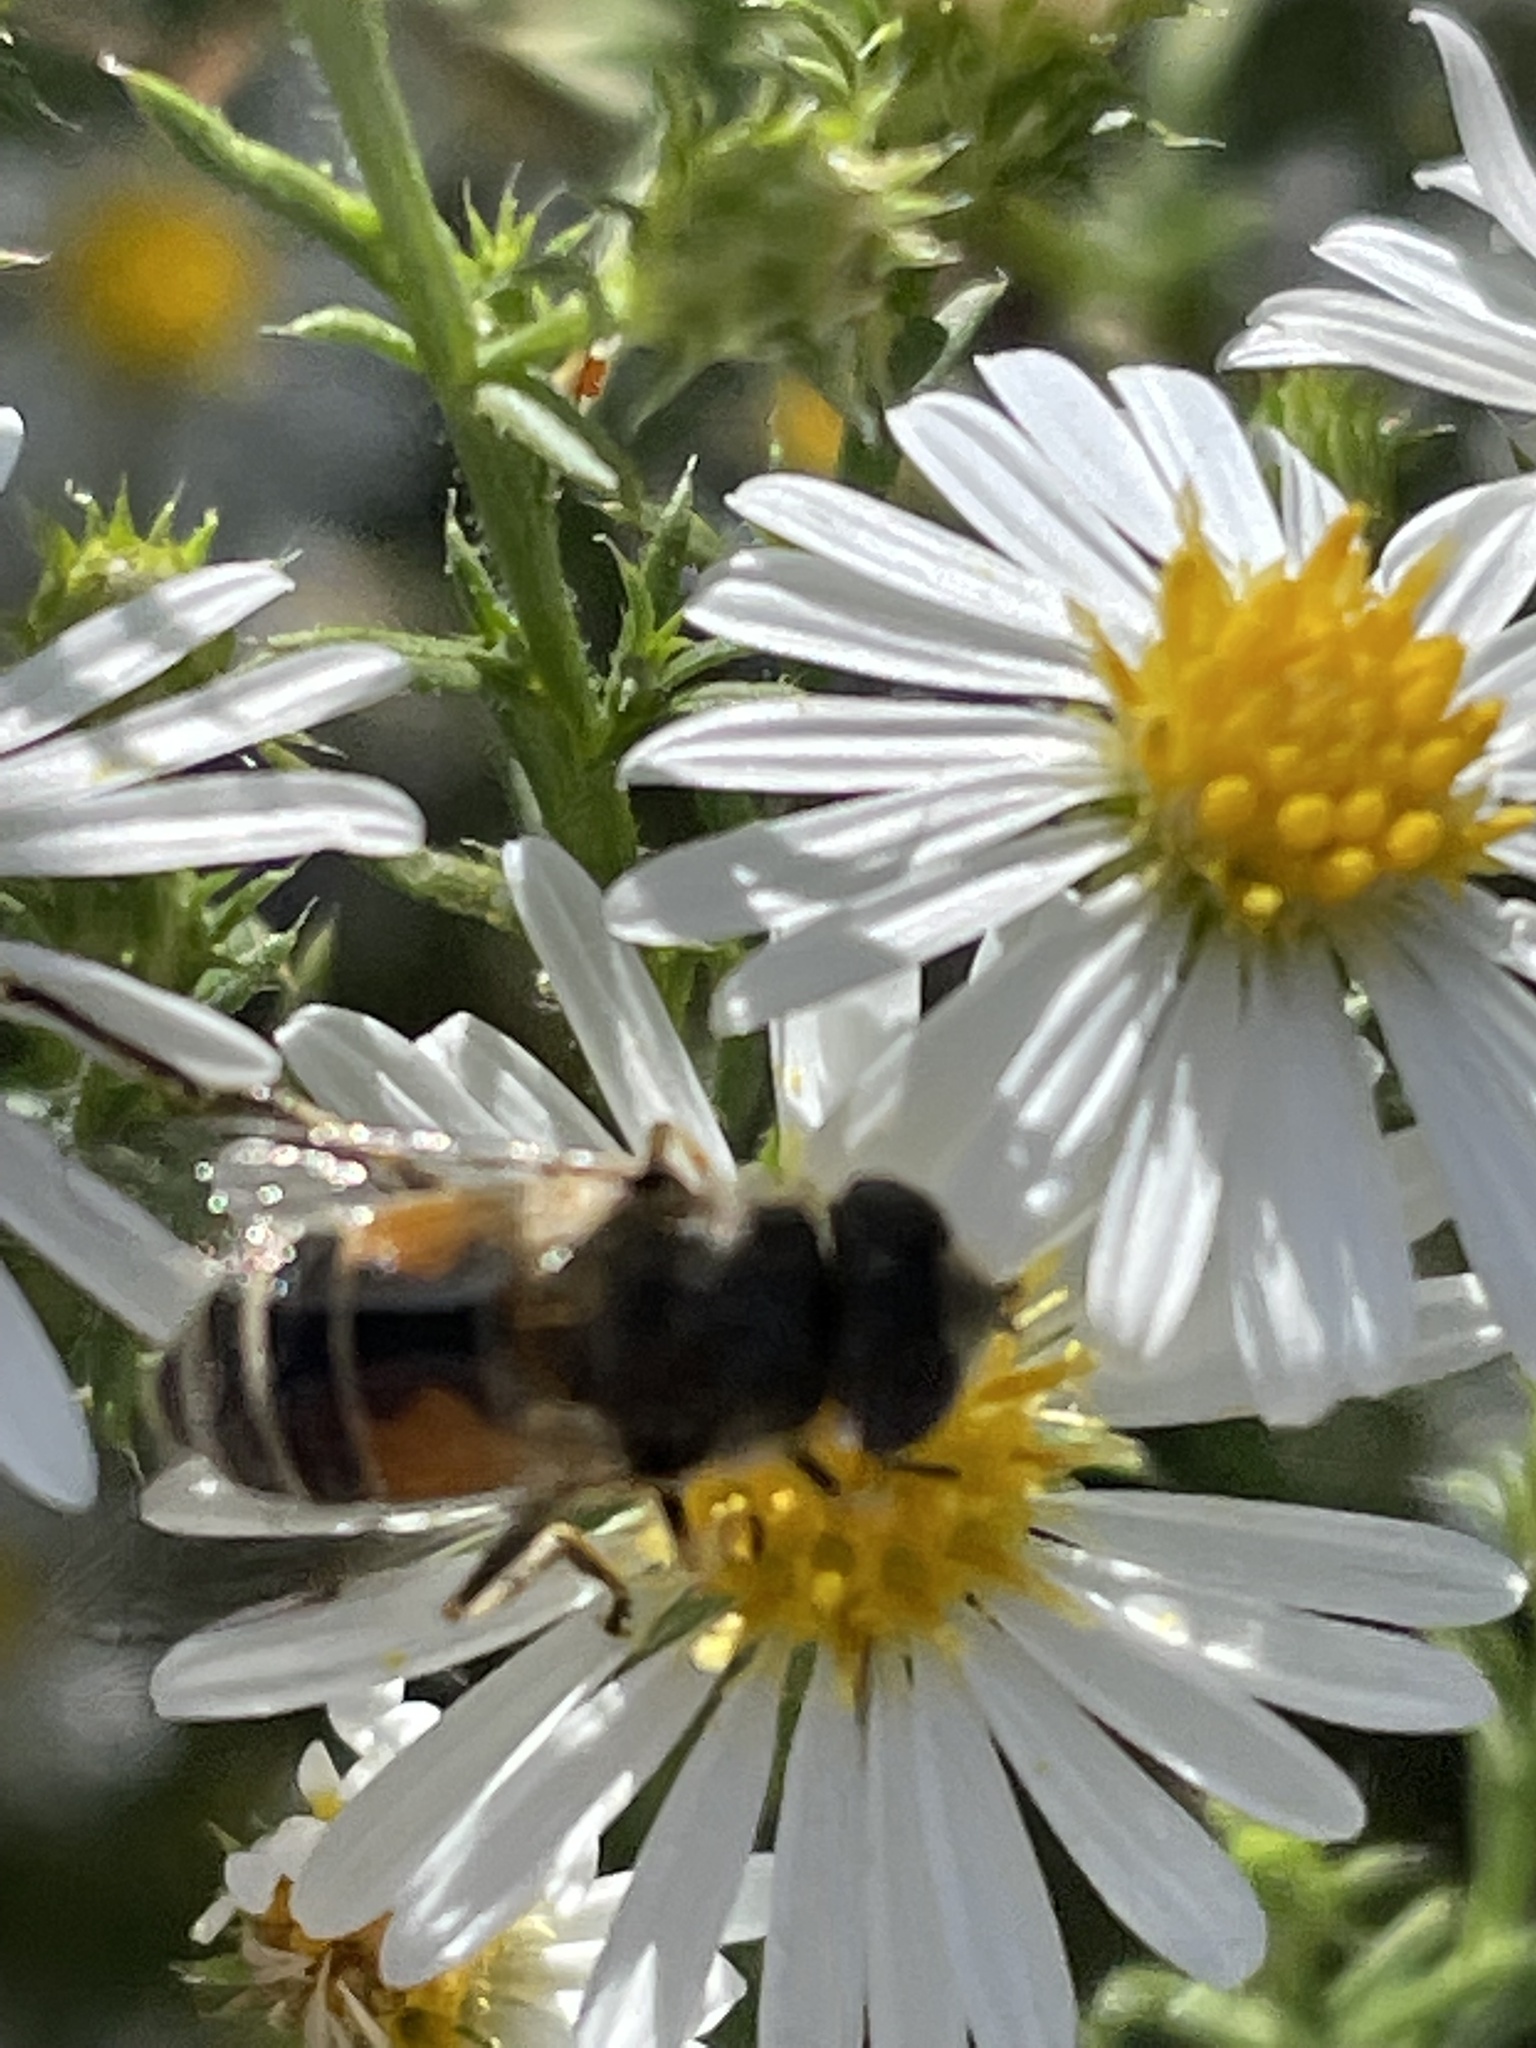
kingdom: Animalia
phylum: Arthropoda
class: Insecta
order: Diptera
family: Syrphidae
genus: Eristalis
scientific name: Eristalis arbustorum
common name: Hover fly
